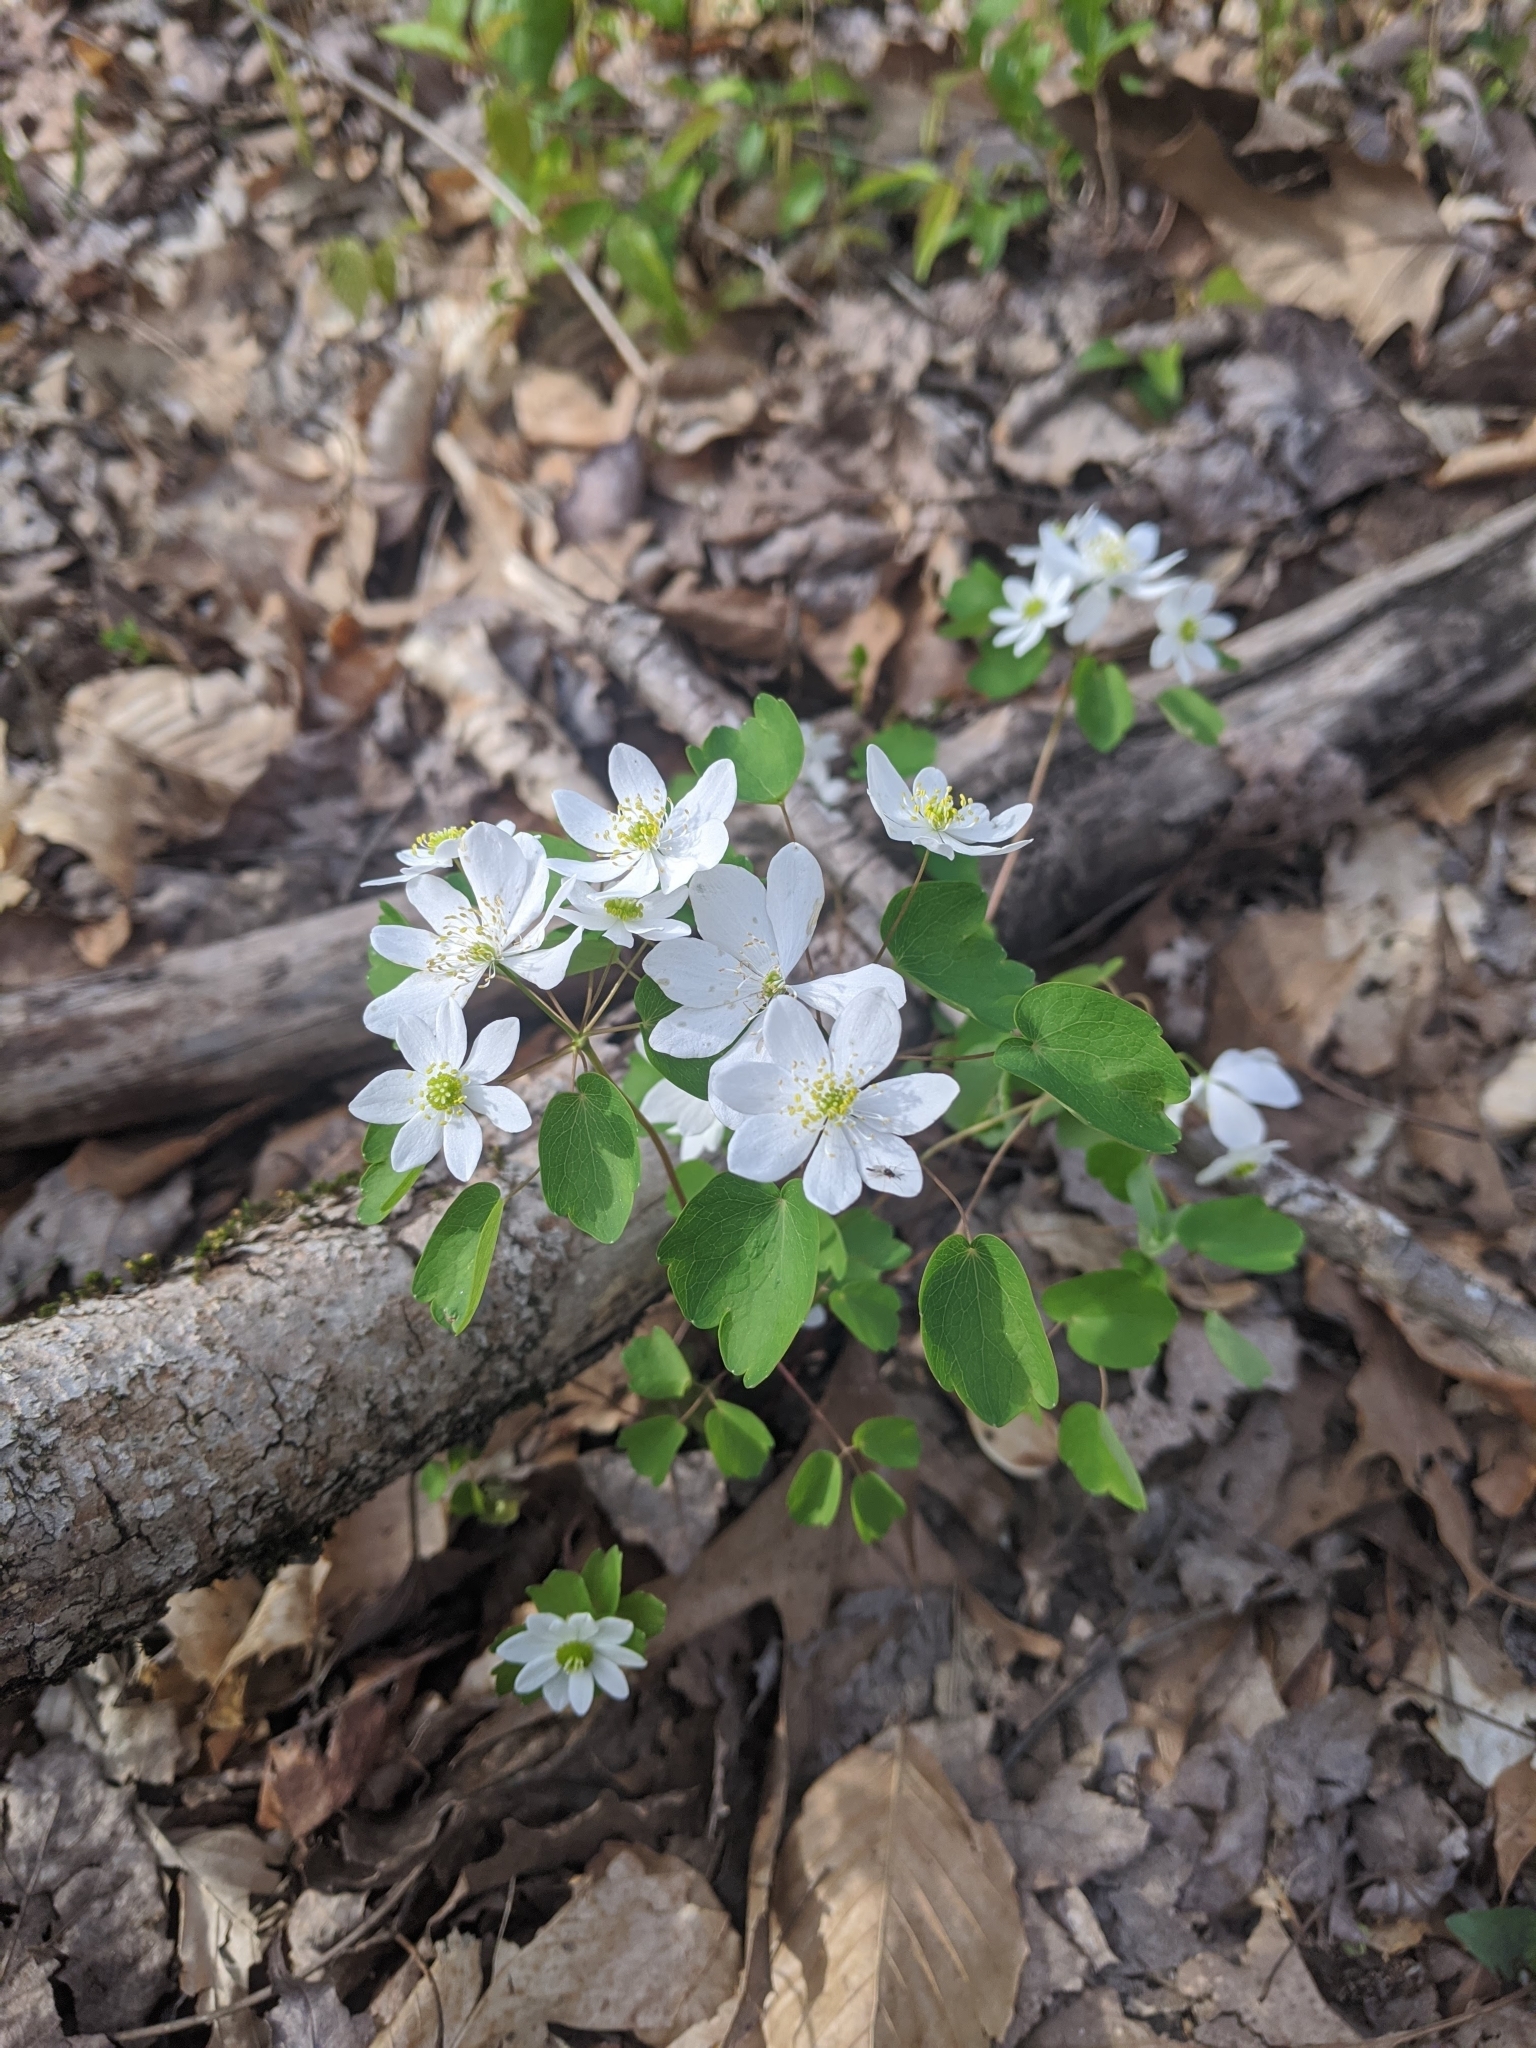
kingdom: Plantae
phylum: Tracheophyta
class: Magnoliopsida
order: Ranunculales
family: Ranunculaceae
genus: Thalictrum
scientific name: Thalictrum thalictroides
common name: Rue-anemone
